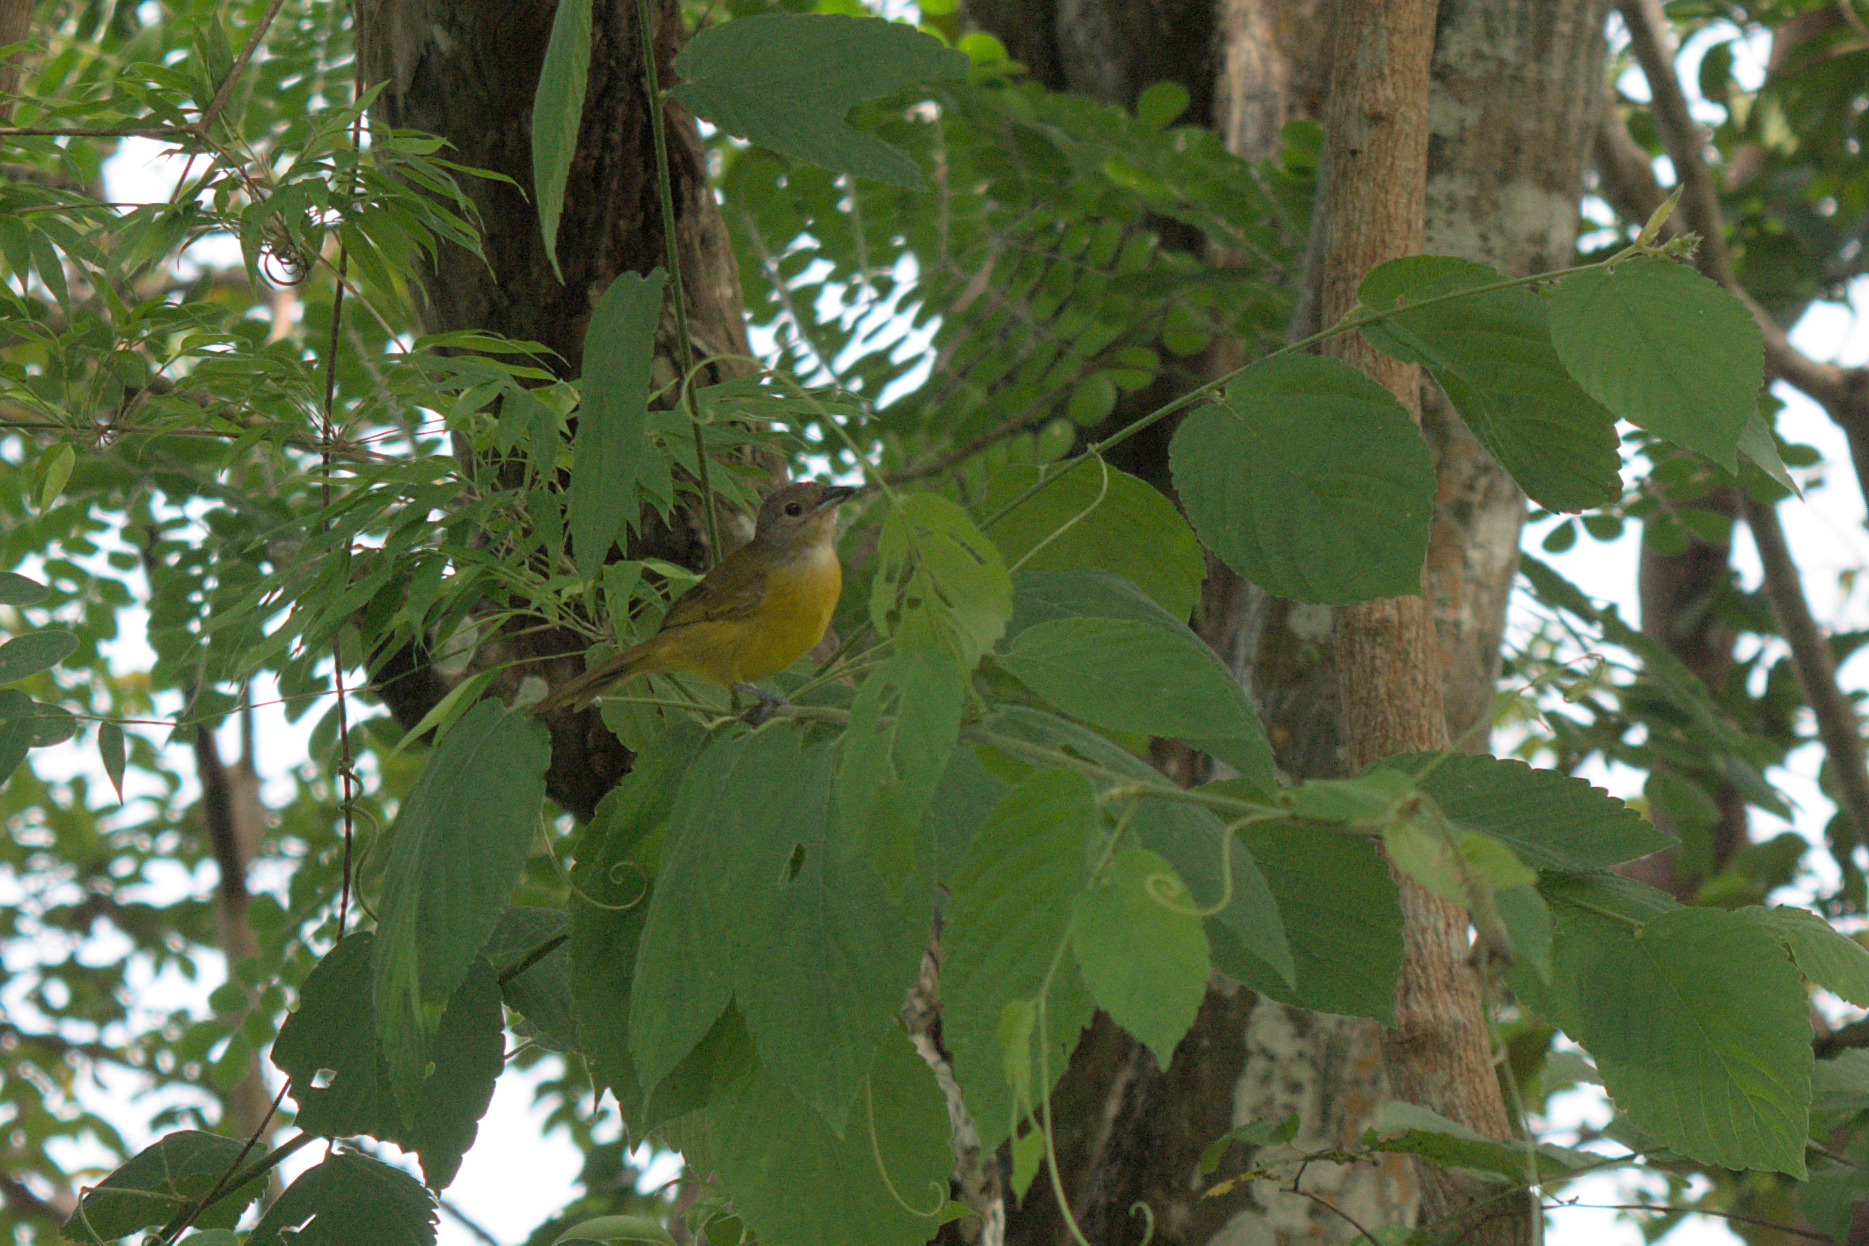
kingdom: Animalia
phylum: Chordata
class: Aves
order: Passeriformes
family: Thraupidae
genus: Loriotus
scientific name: Loriotus luctuosus
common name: White-shouldered tanager
